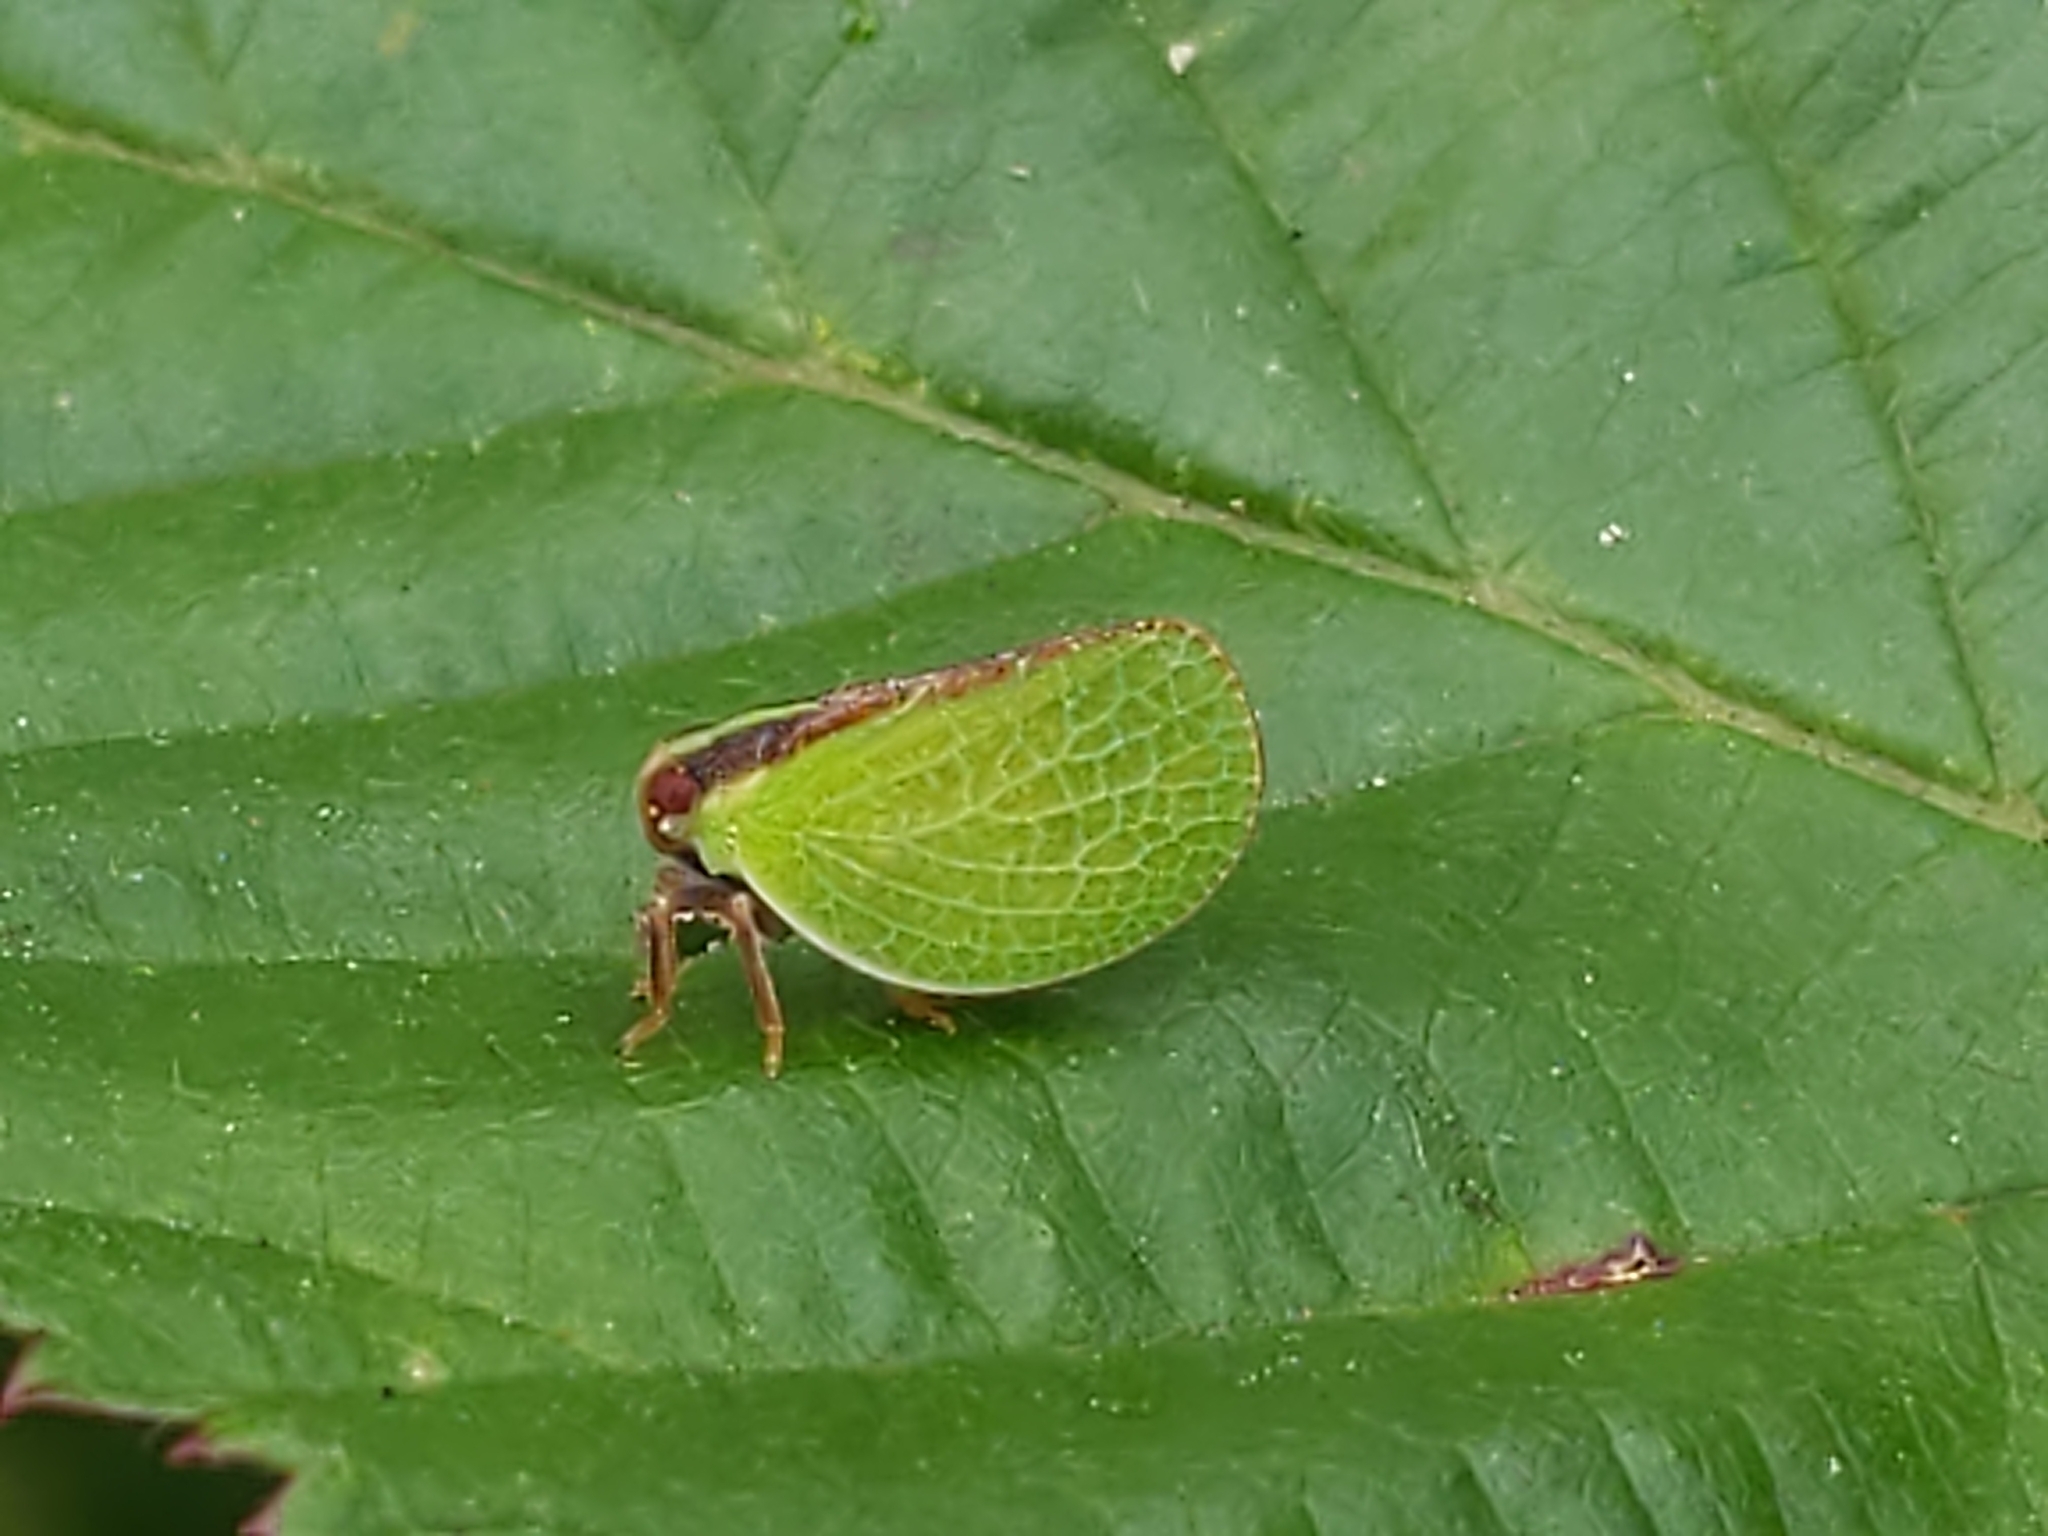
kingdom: Animalia
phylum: Arthropoda
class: Insecta
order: Hemiptera
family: Acanaloniidae
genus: Acanalonia
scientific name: Acanalonia bivittata
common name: Two-striped planthopper
